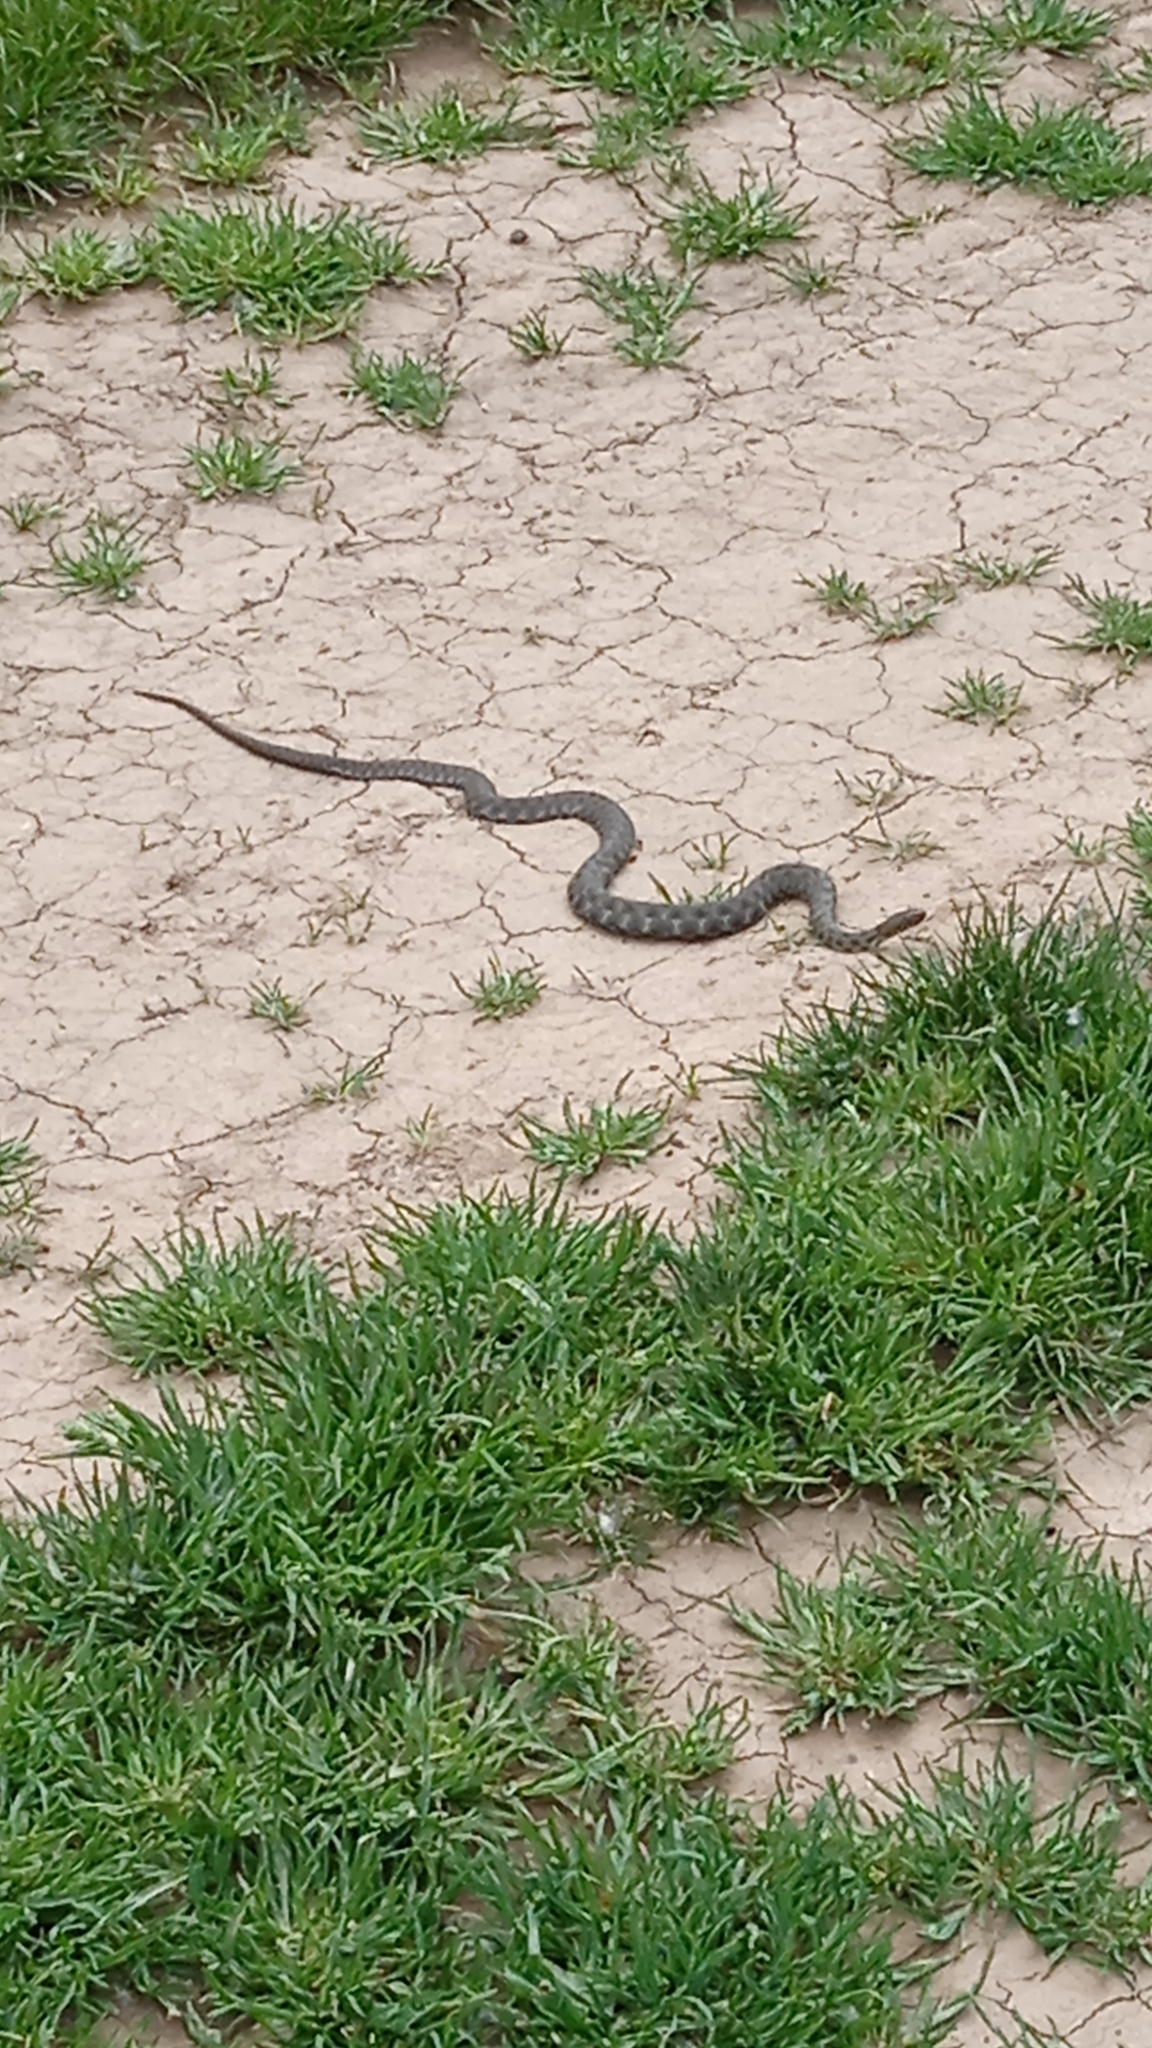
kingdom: Animalia
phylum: Chordata
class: Squamata
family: Colubridae
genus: Natrix
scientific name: Natrix tessellata
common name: Dice snake
